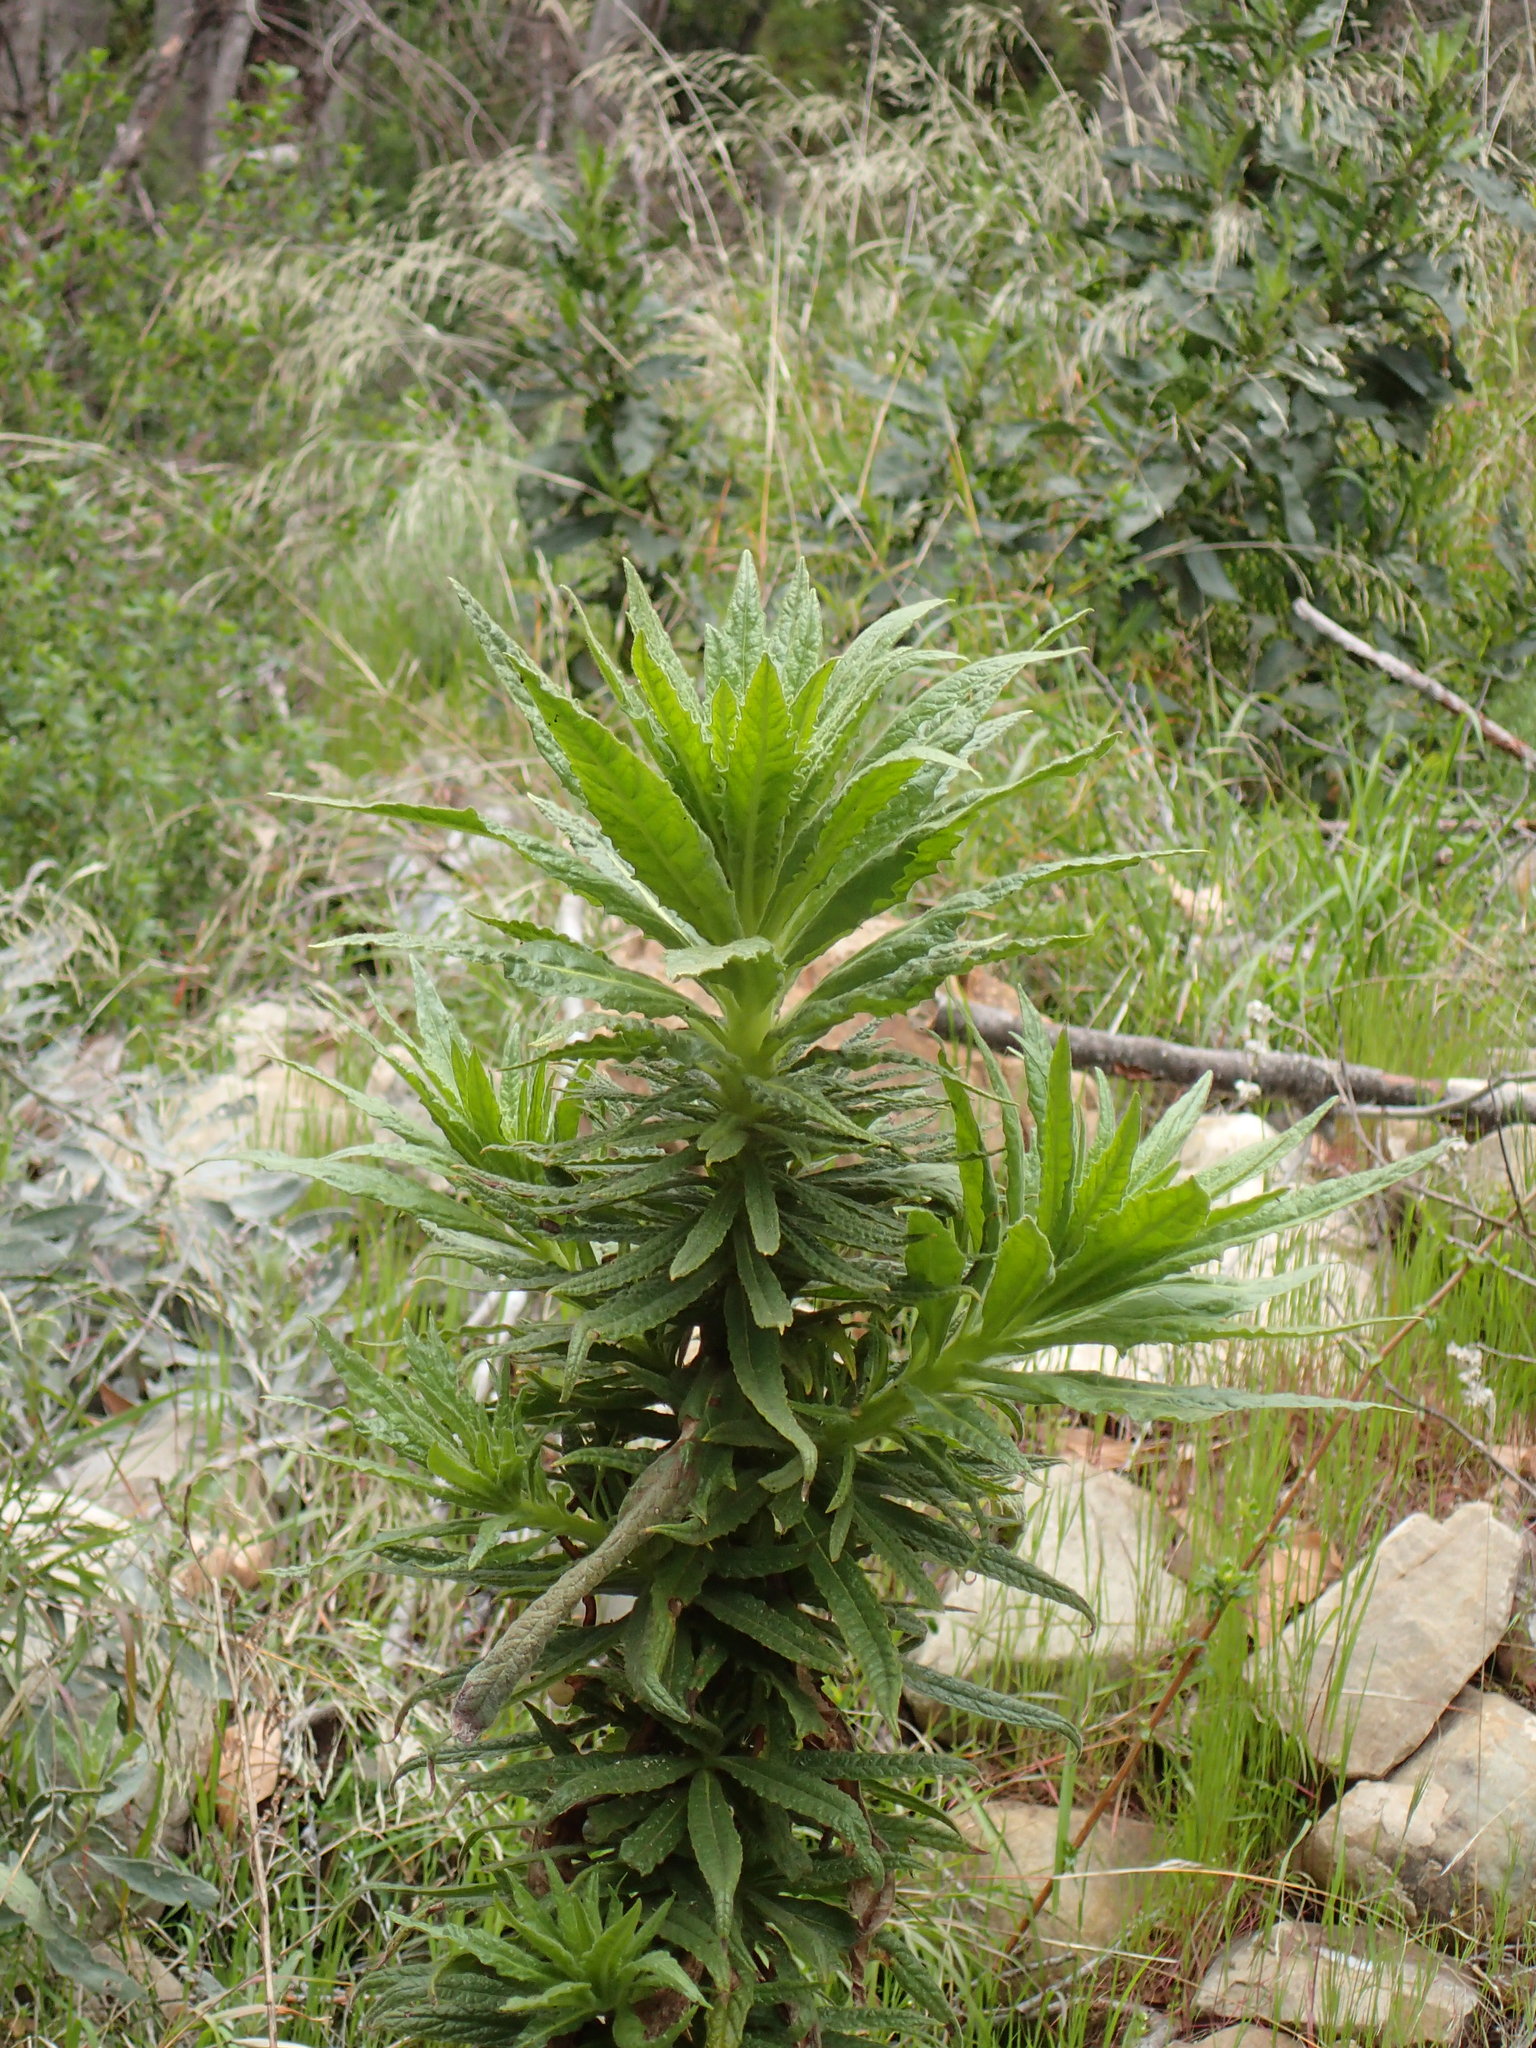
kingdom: Plantae
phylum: Tracheophyta
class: Magnoliopsida
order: Boraginales
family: Namaceae
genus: Turricula
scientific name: Turricula parryi
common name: Poodle-dog-bush
